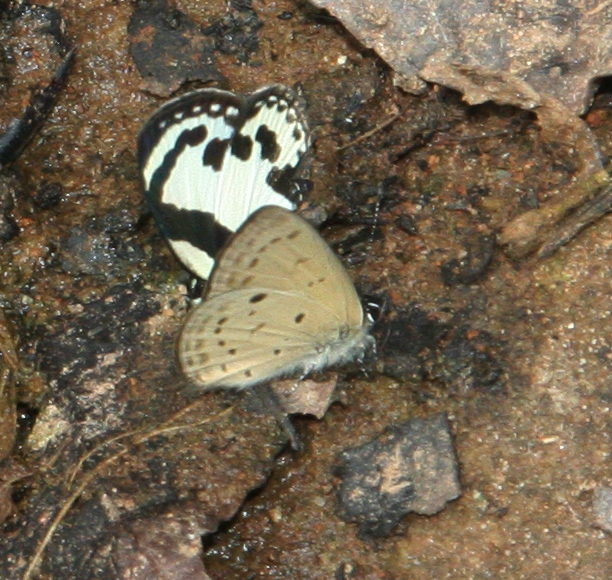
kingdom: Animalia
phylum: Arthropoda
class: Insecta
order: Lepidoptera
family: Lycaenidae
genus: Una
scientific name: Una usta
